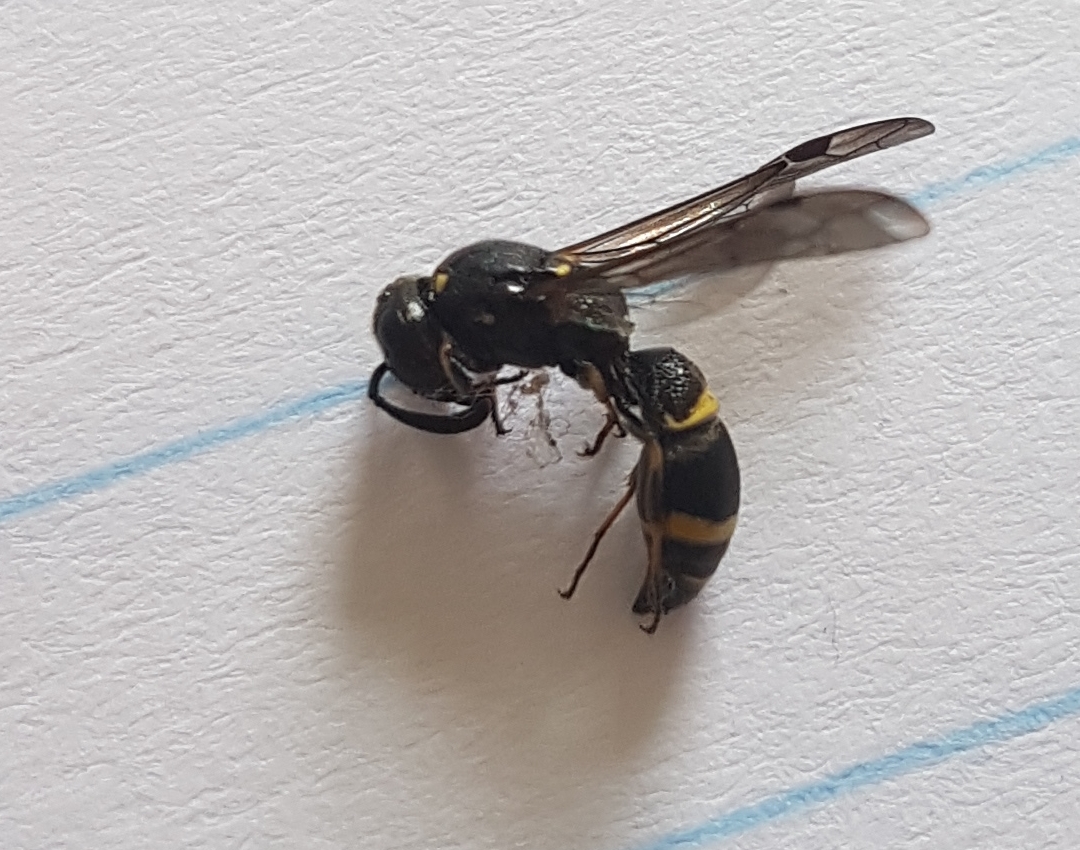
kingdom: Animalia
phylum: Arthropoda
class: Insecta
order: Hymenoptera
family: Eumenidae
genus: Symmorphus
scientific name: Symmorphus bifasciatus
